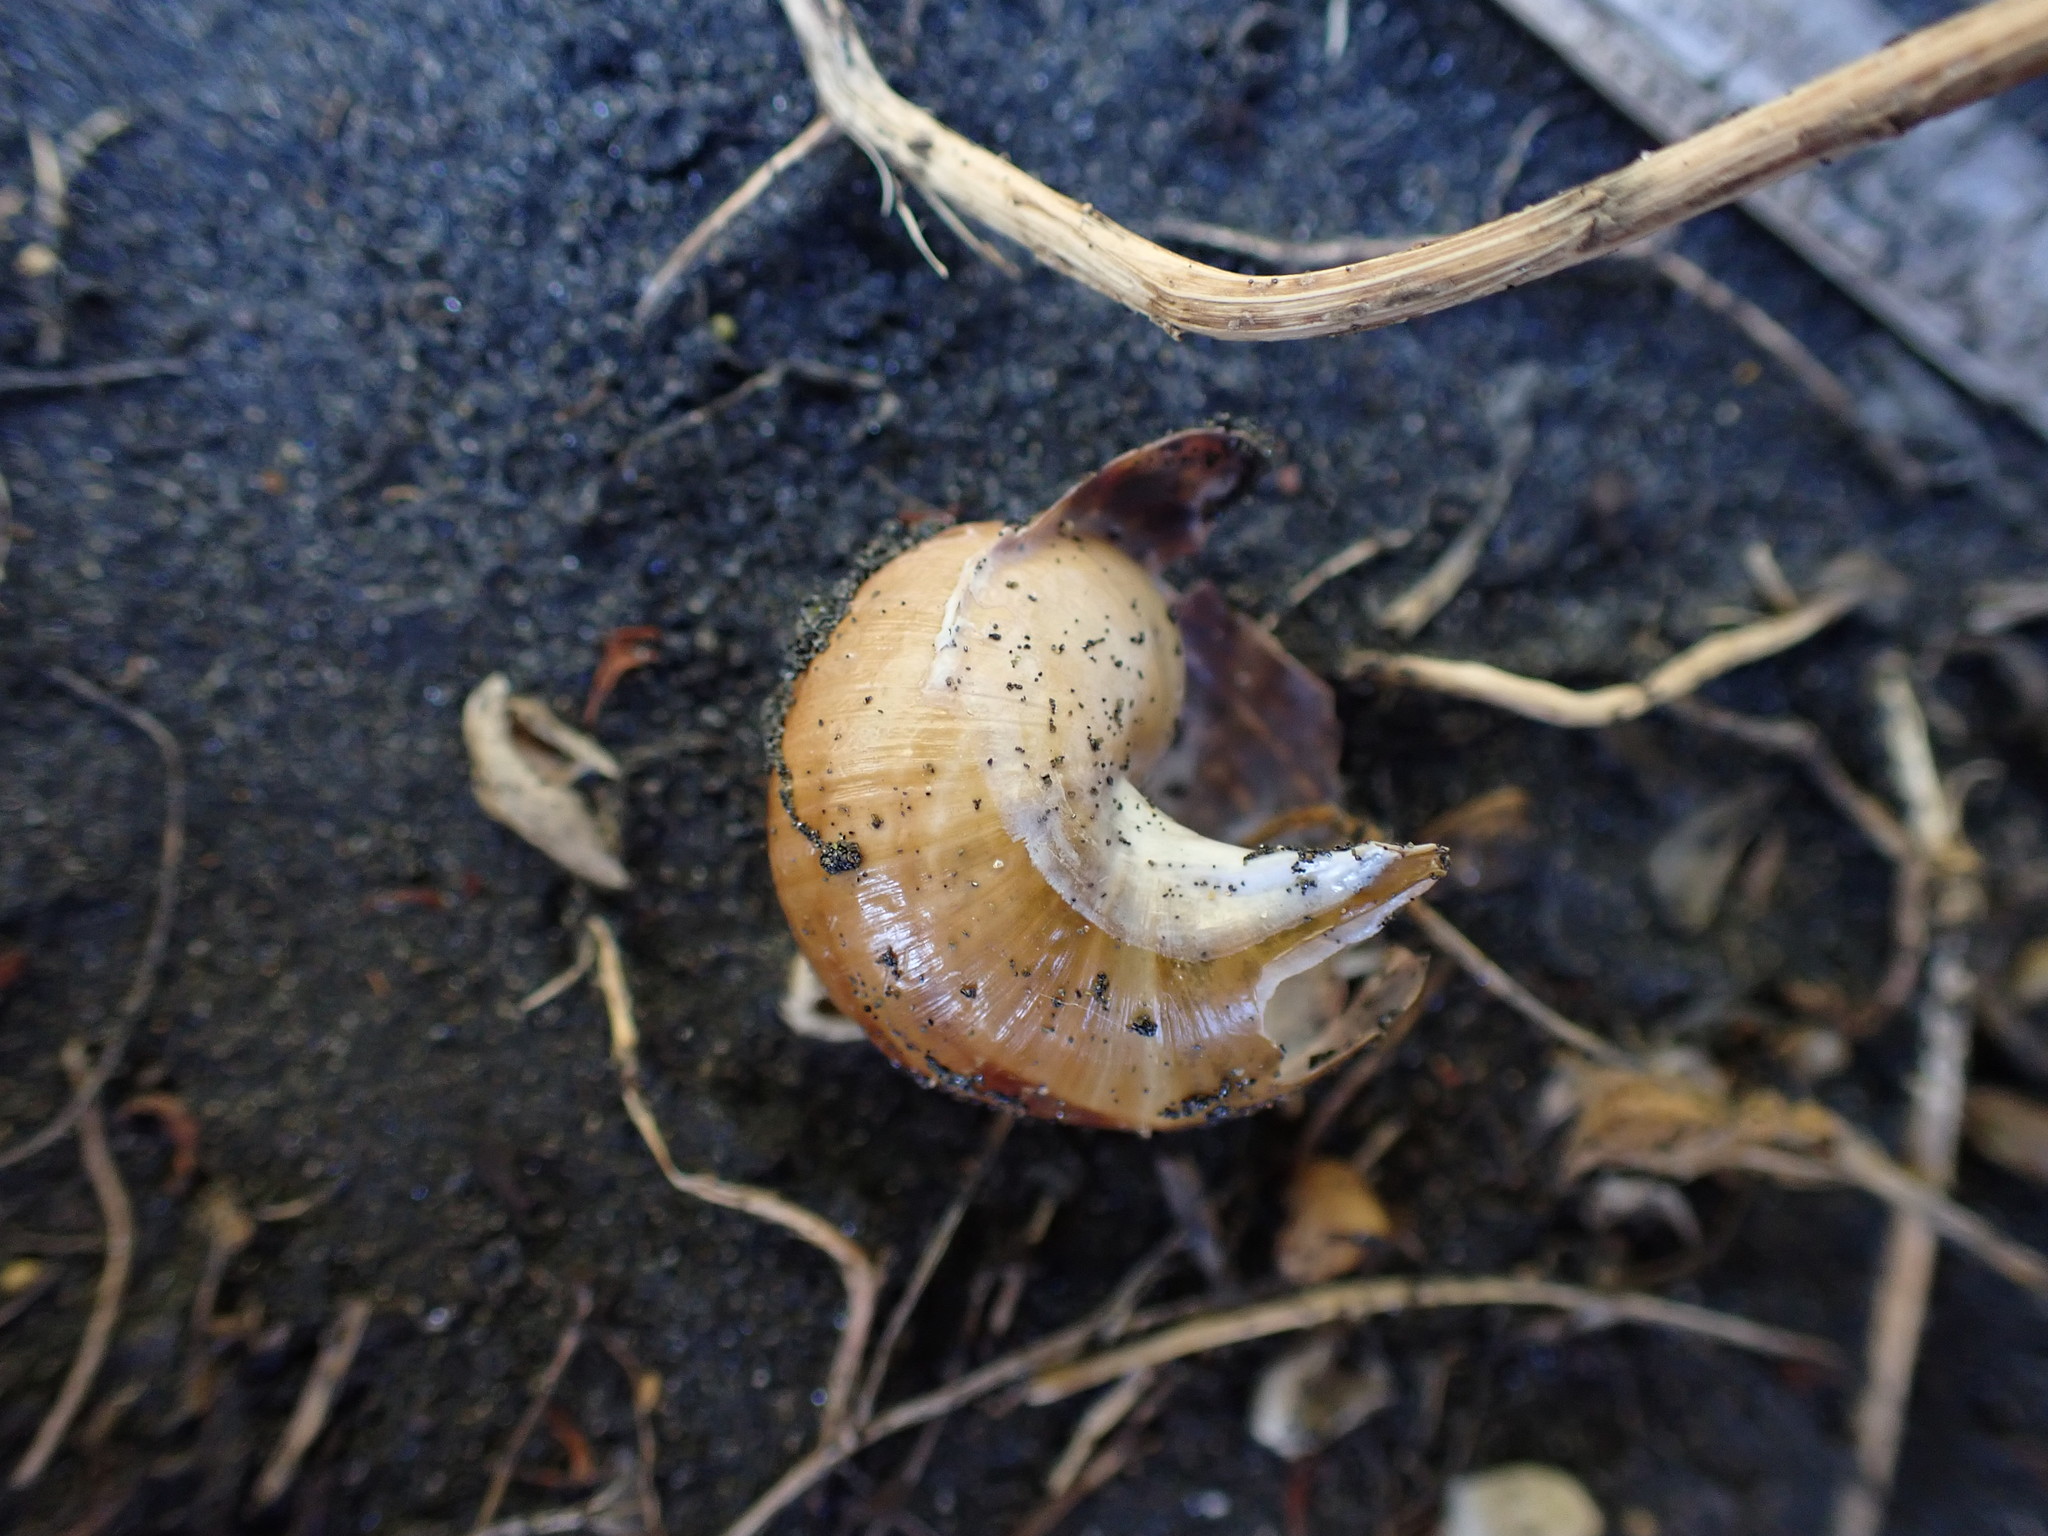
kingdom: Animalia
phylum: Mollusca
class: Gastropoda
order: Stylommatophora
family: Helicidae
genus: Cornu
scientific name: Cornu aspersum
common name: Brown garden snail
